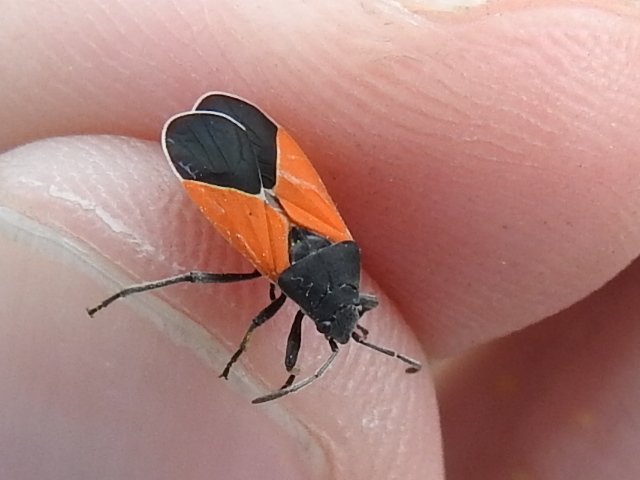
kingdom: Animalia
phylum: Arthropoda
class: Insecta
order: Hemiptera
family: Lygaeidae
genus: Melanopleurus
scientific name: Melanopleurus belfragei
